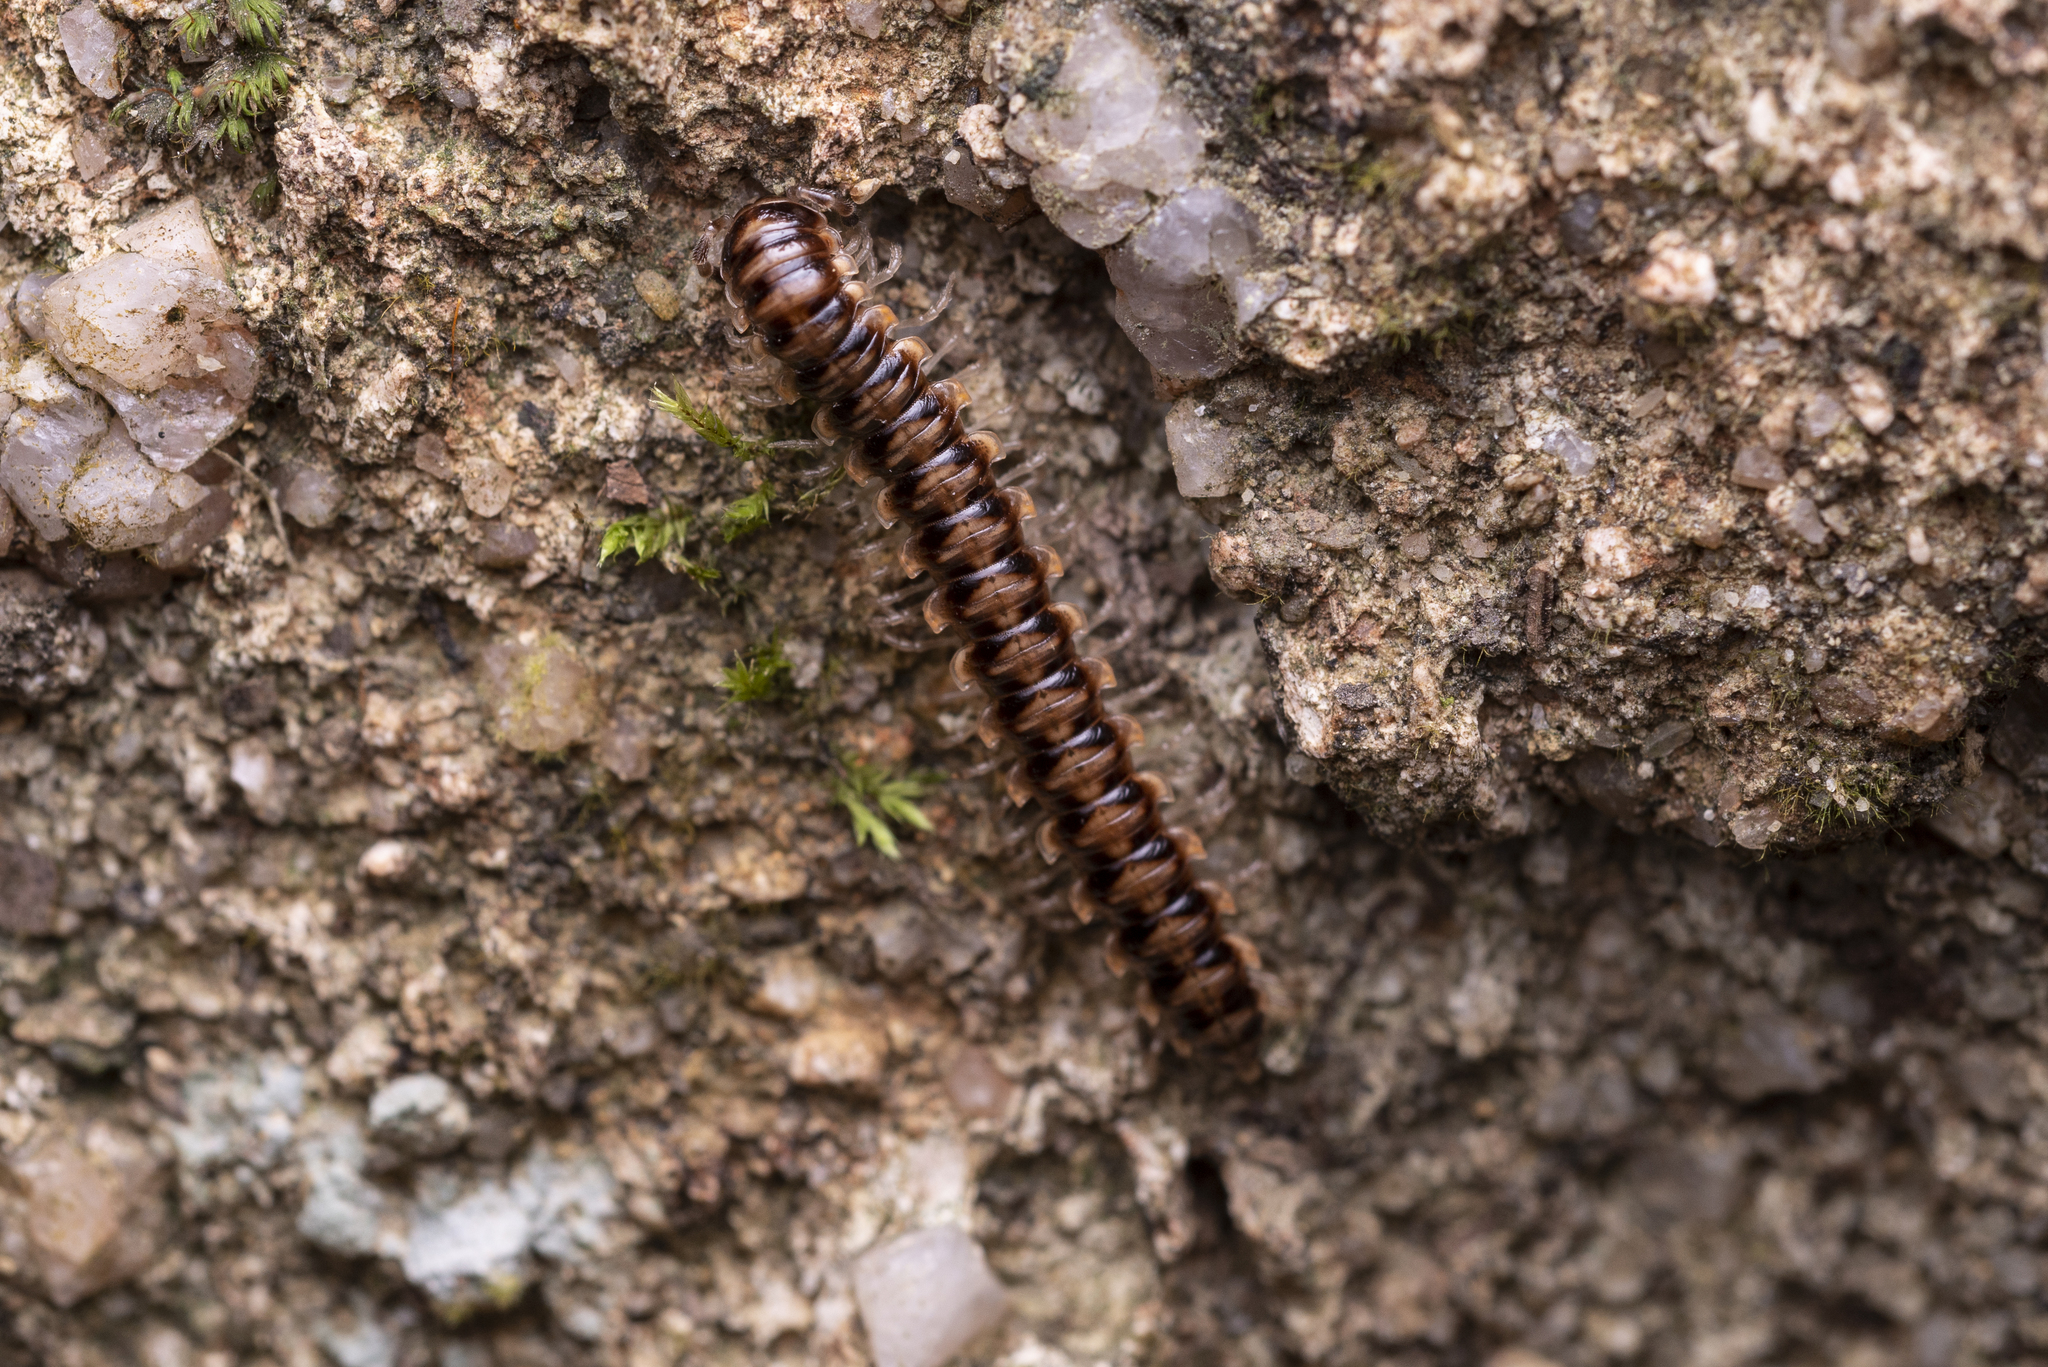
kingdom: Animalia
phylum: Arthropoda
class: Diplopoda
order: Polydesmida
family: Paradoxosomatidae
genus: Nedyopus
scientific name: Nedyopus picturatus
